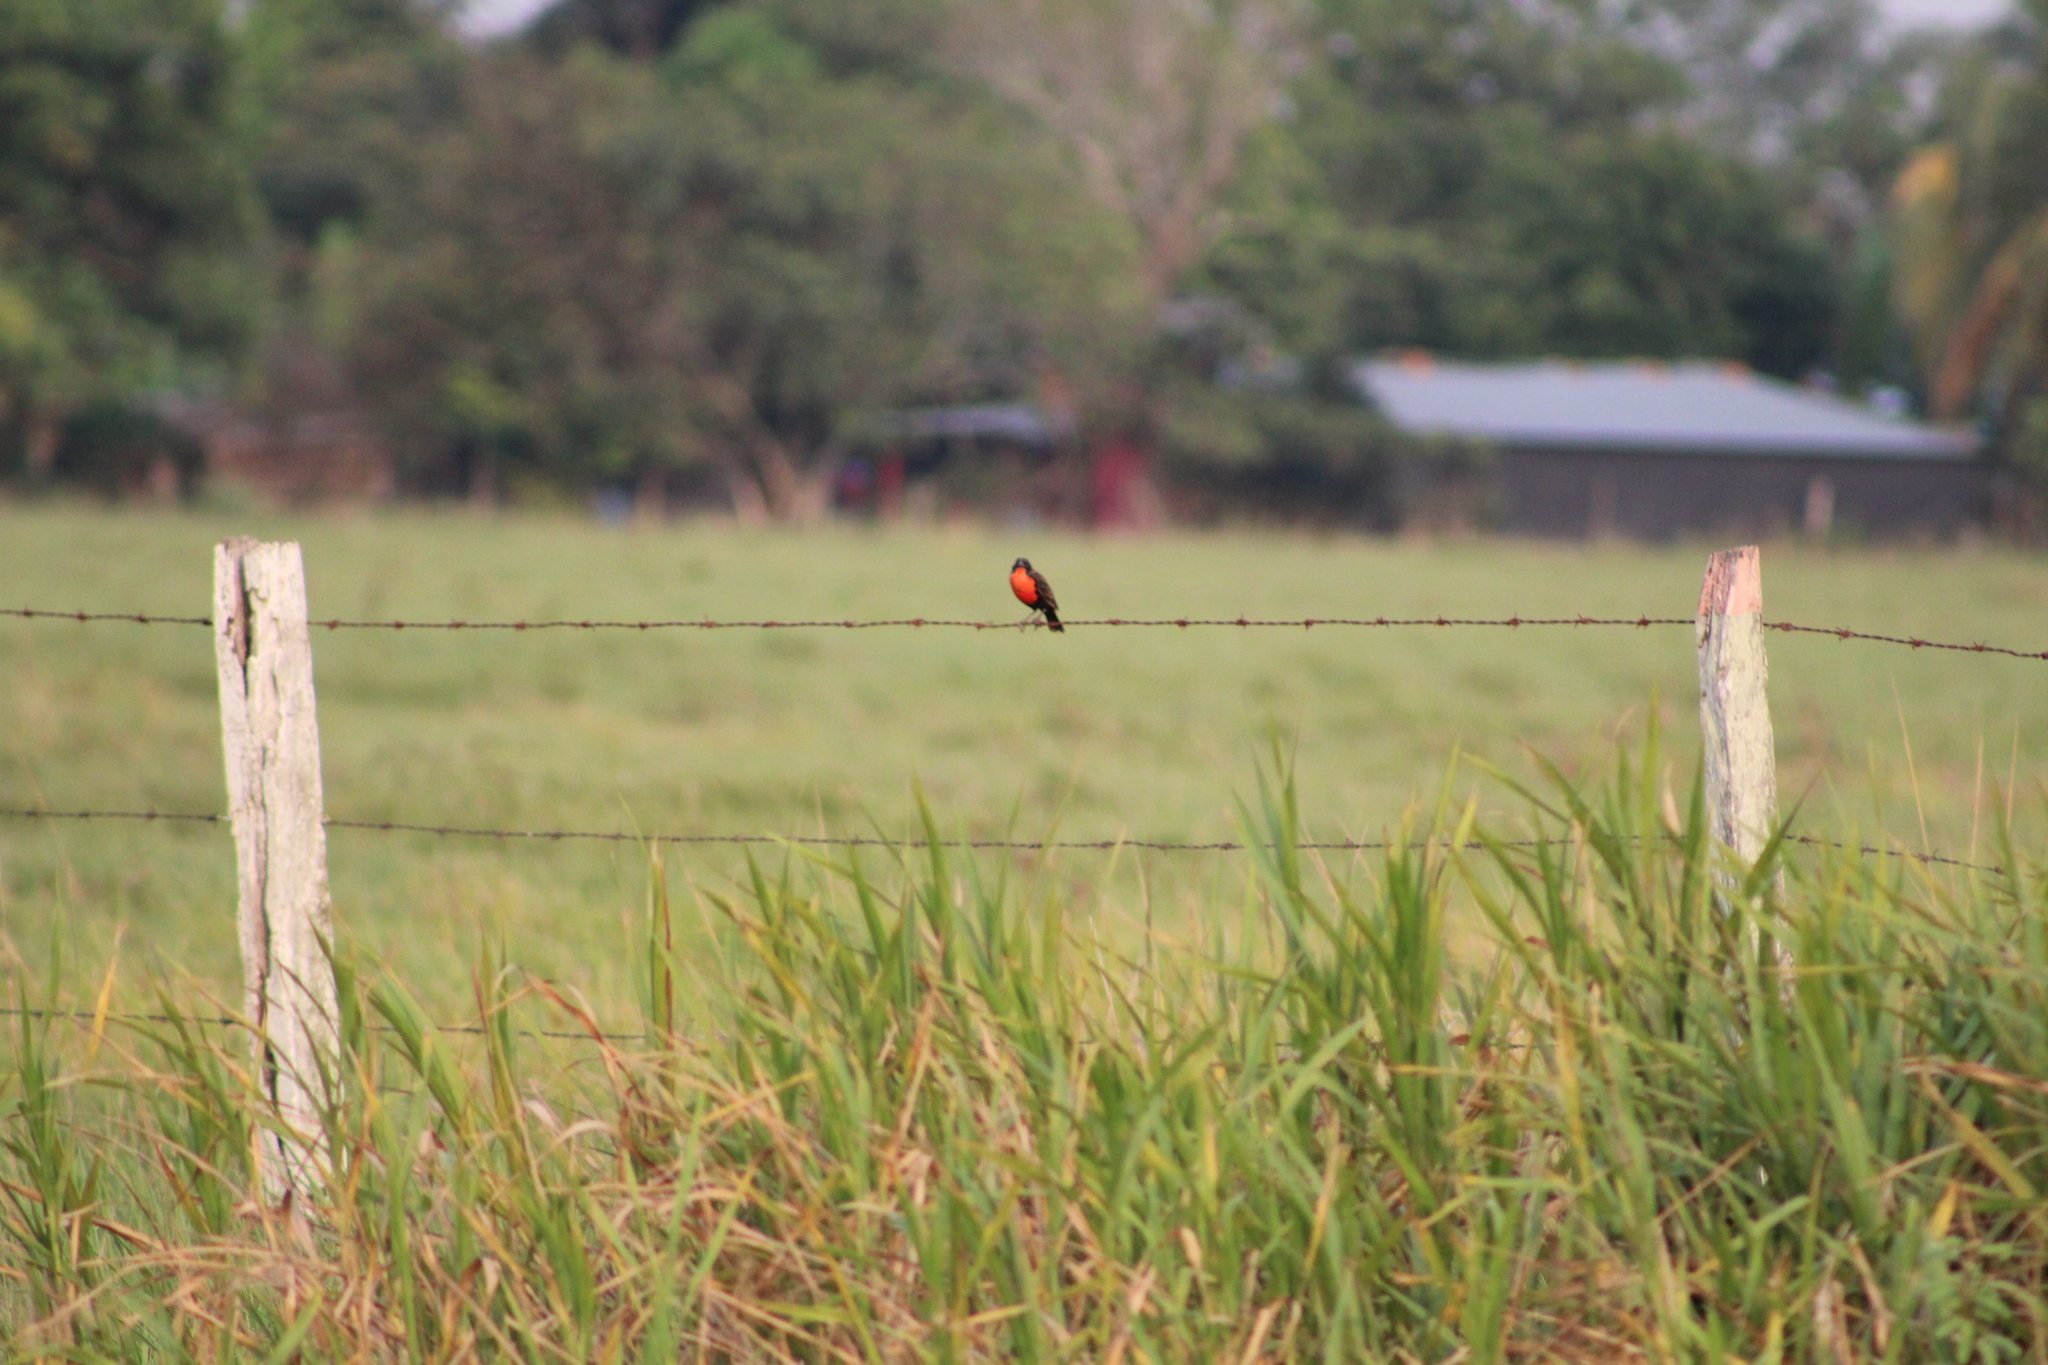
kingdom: Animalia
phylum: Chordata
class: Aves
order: Passeriformes
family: Icteridae
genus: Sturnella
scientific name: Sturnella militaris
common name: Red-breasted blackbird
